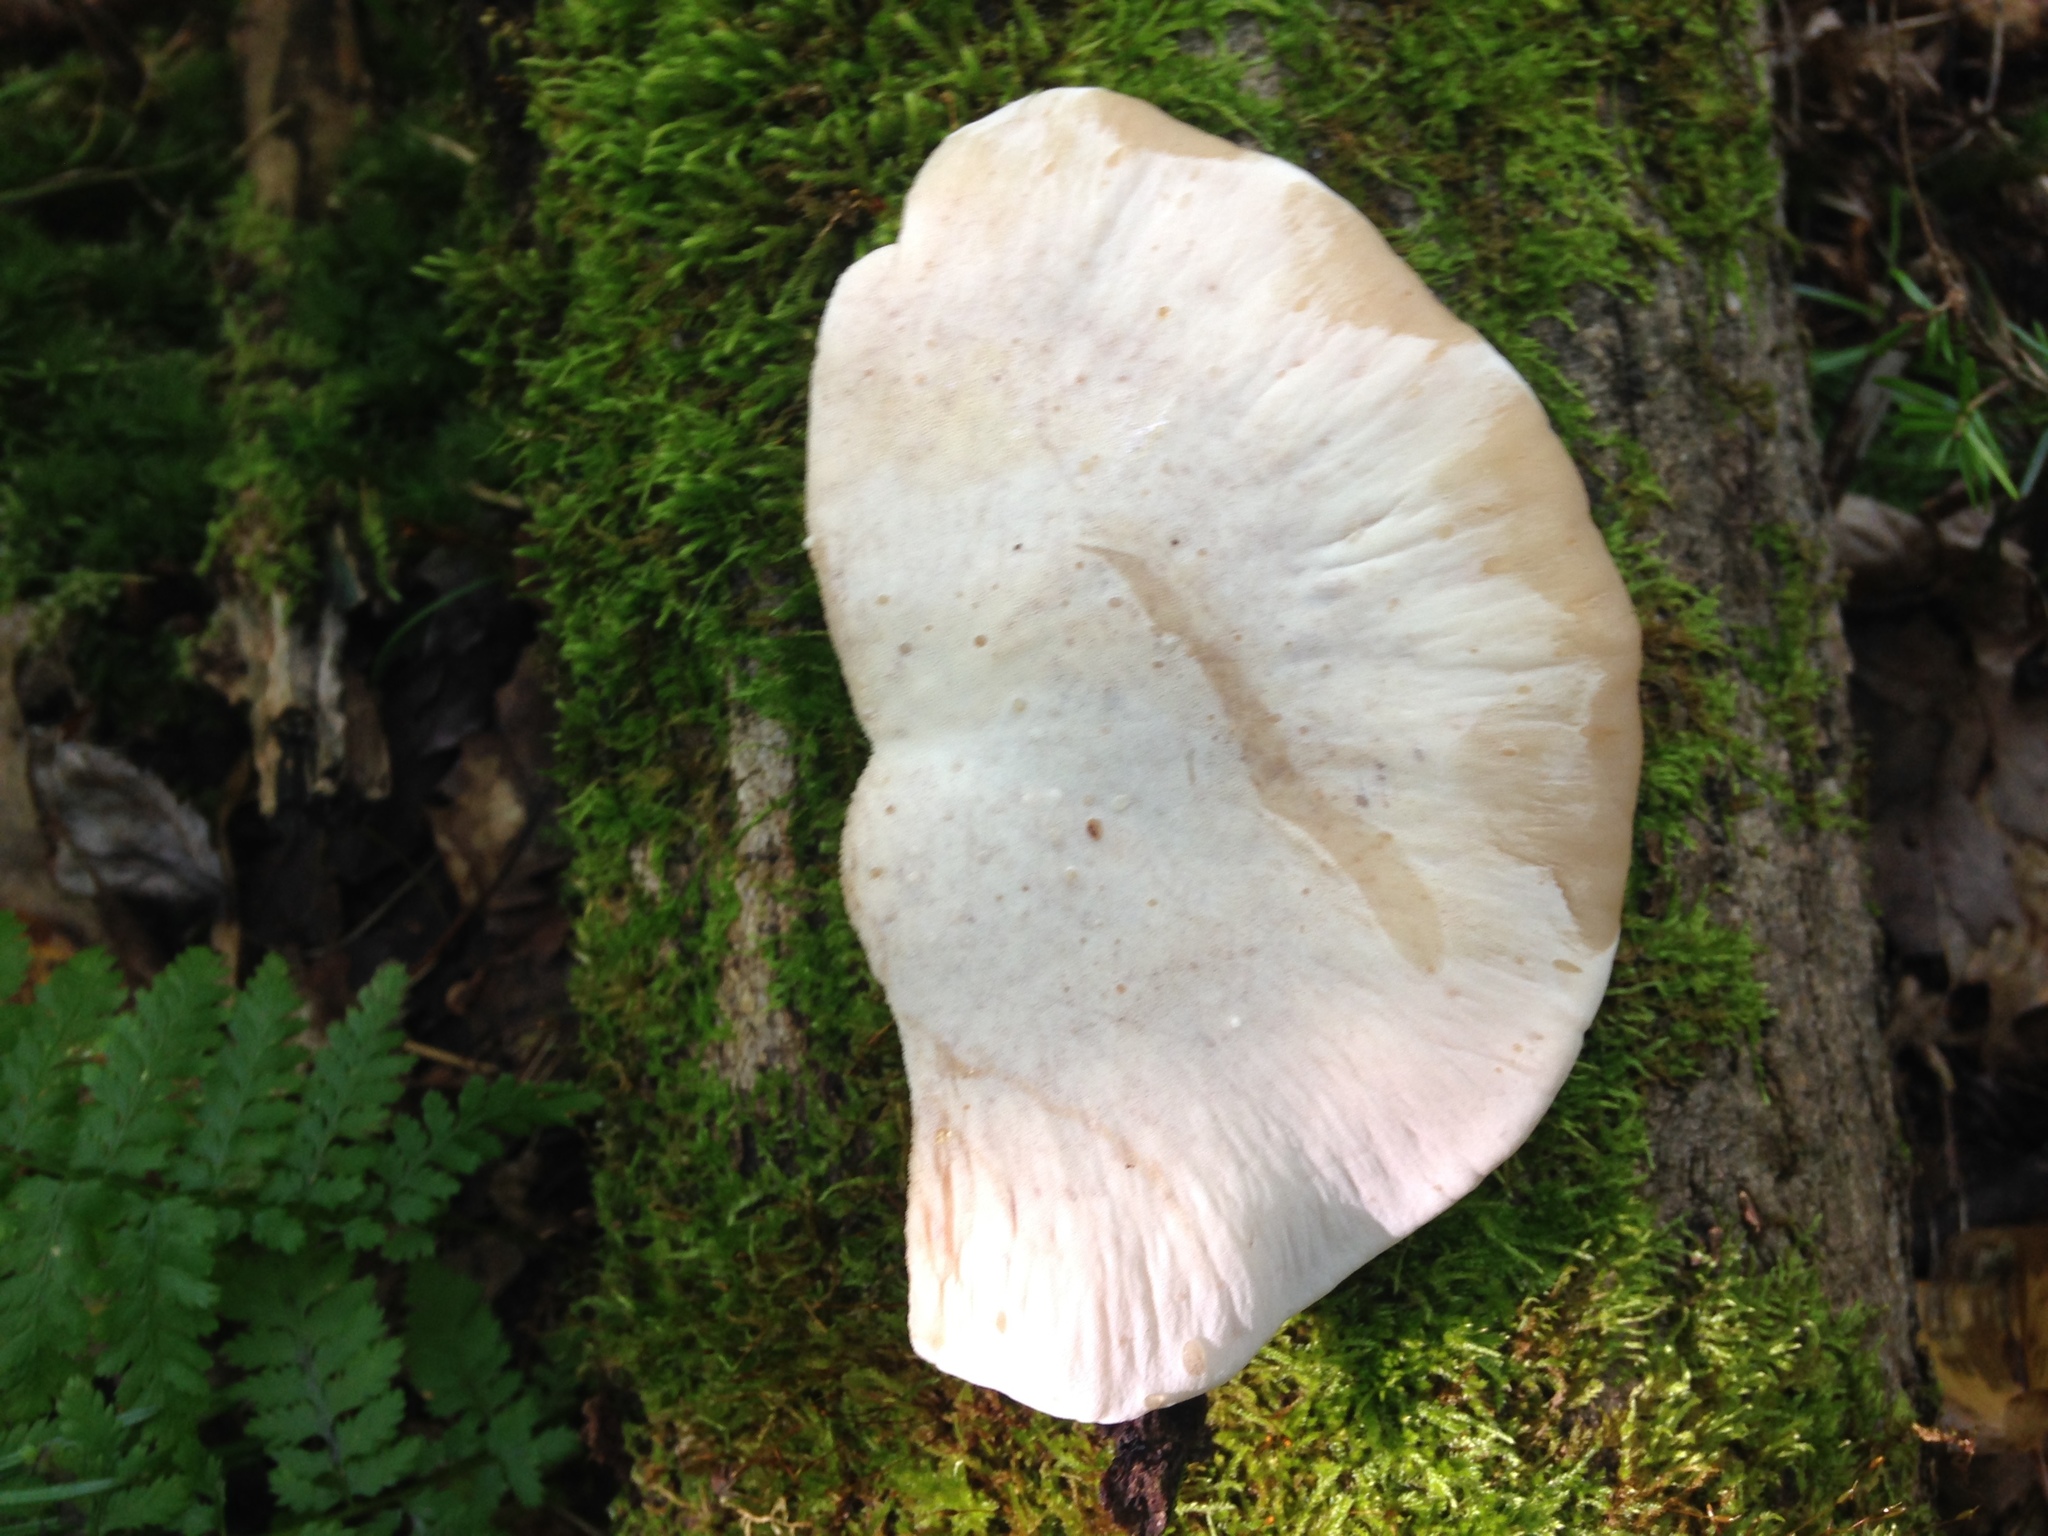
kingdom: Fungi
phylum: Basidiomycota
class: Agaricomycetes
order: Polyporales
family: Ischnodermataceae
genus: Ischnoderma
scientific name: Ischnoderma resinosum
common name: Resinous polypore
